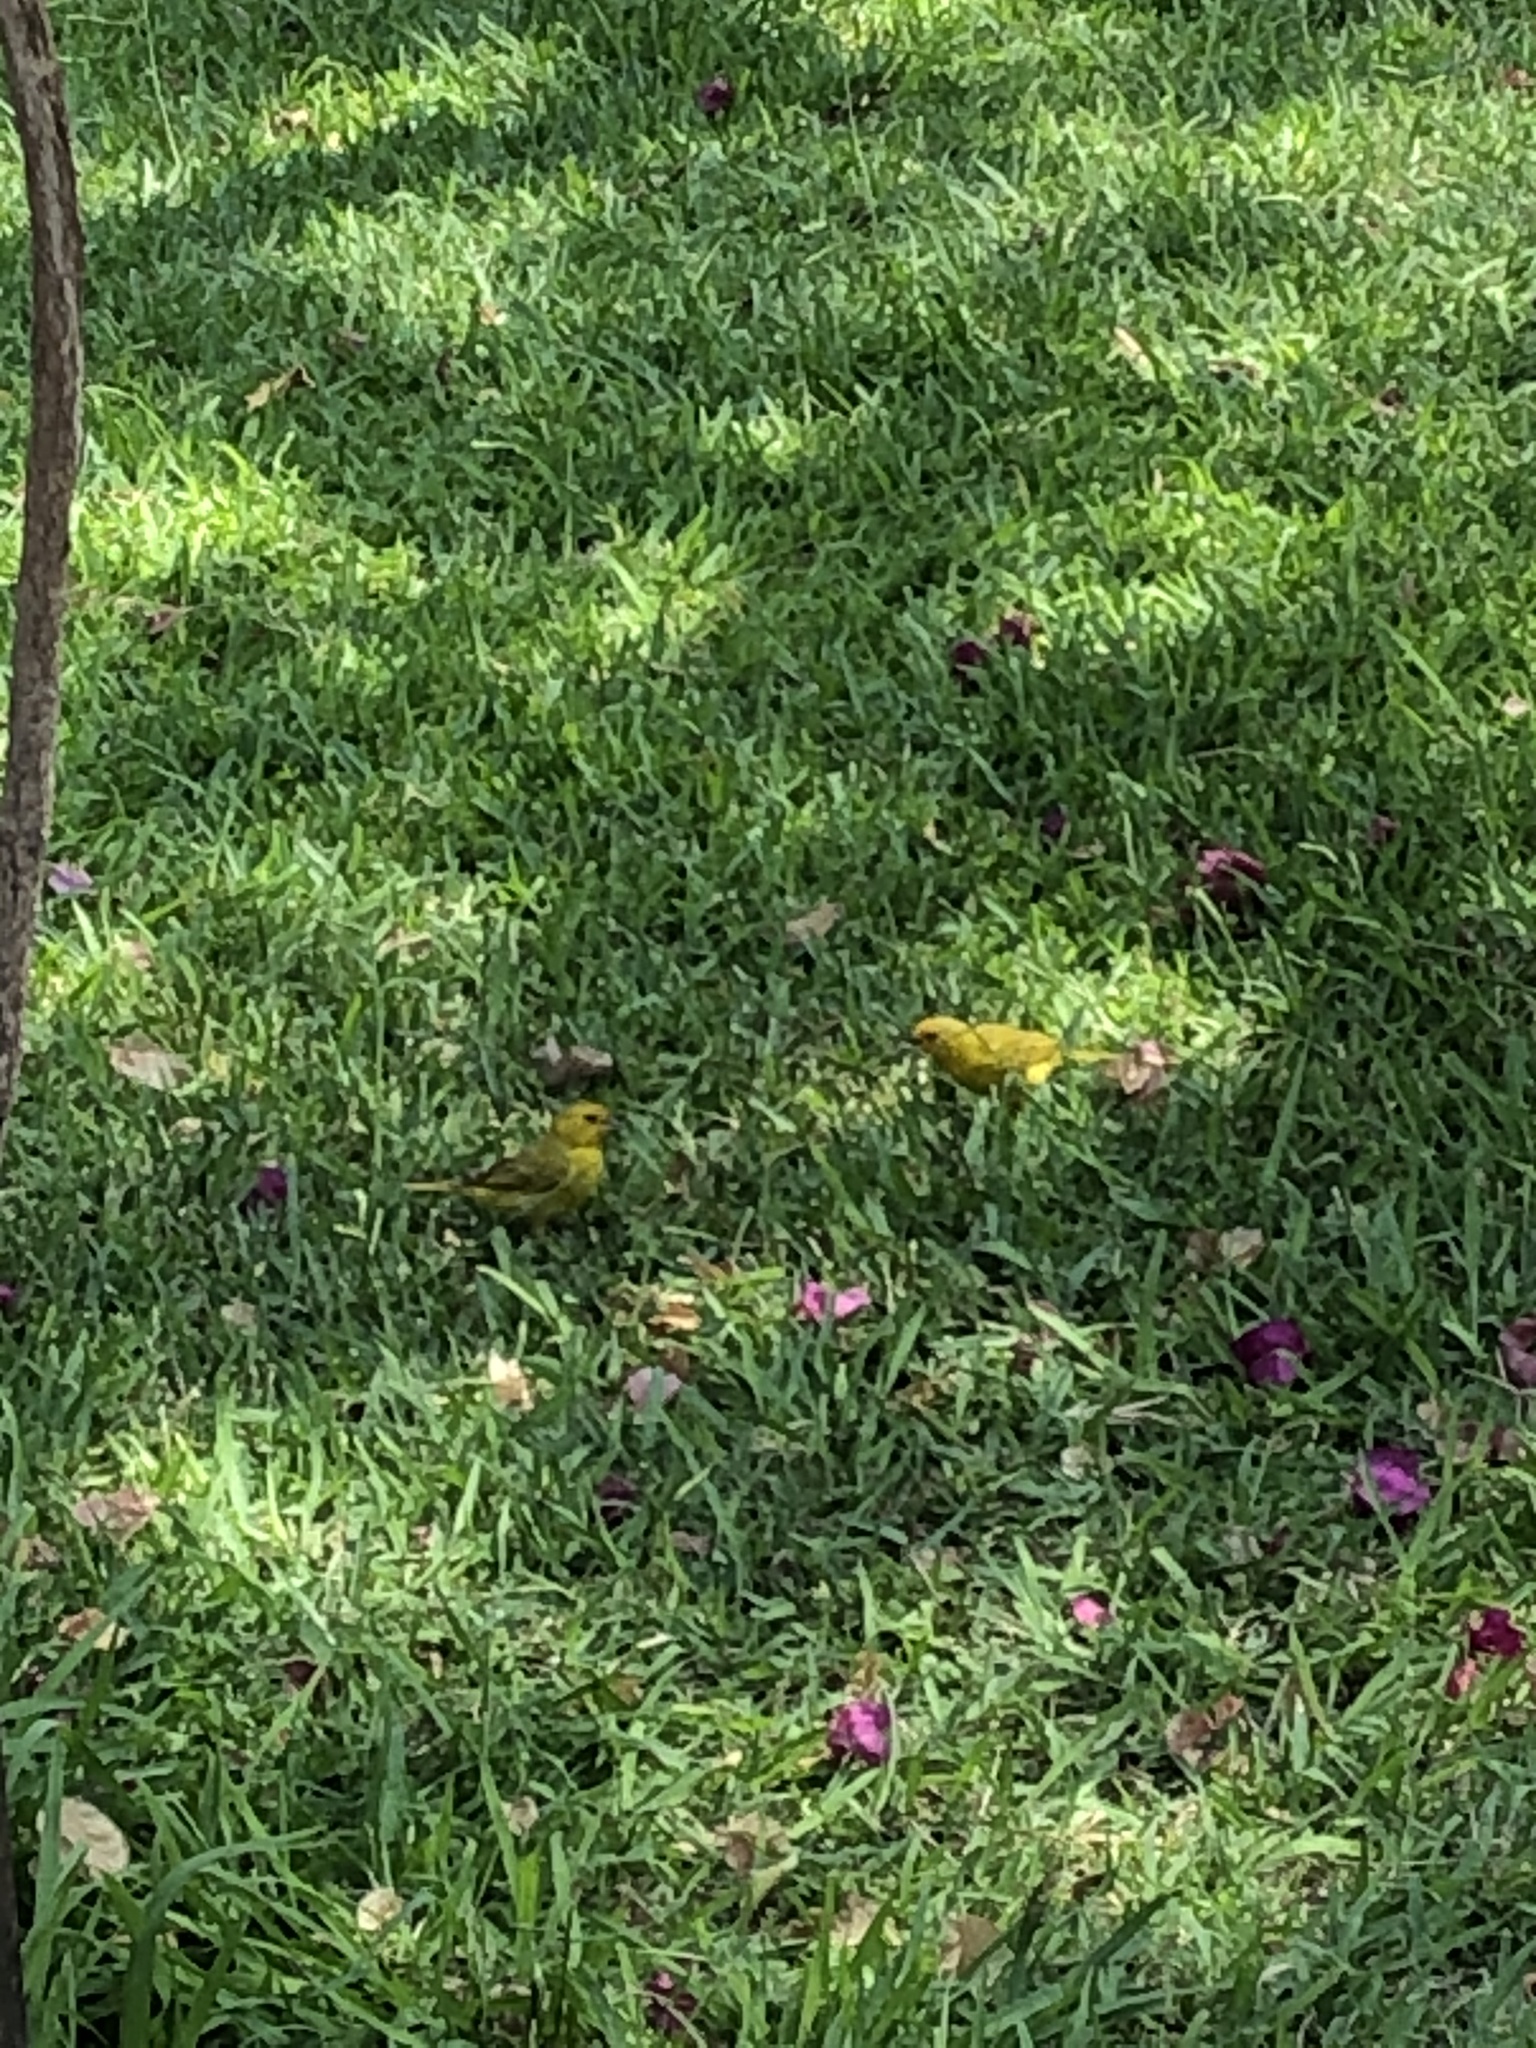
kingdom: Animalia
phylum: Chordata
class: Aves
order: Passeriformes
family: Thraupidae
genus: Sicalis
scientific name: Sicalis flaveola
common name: Saffron finch
